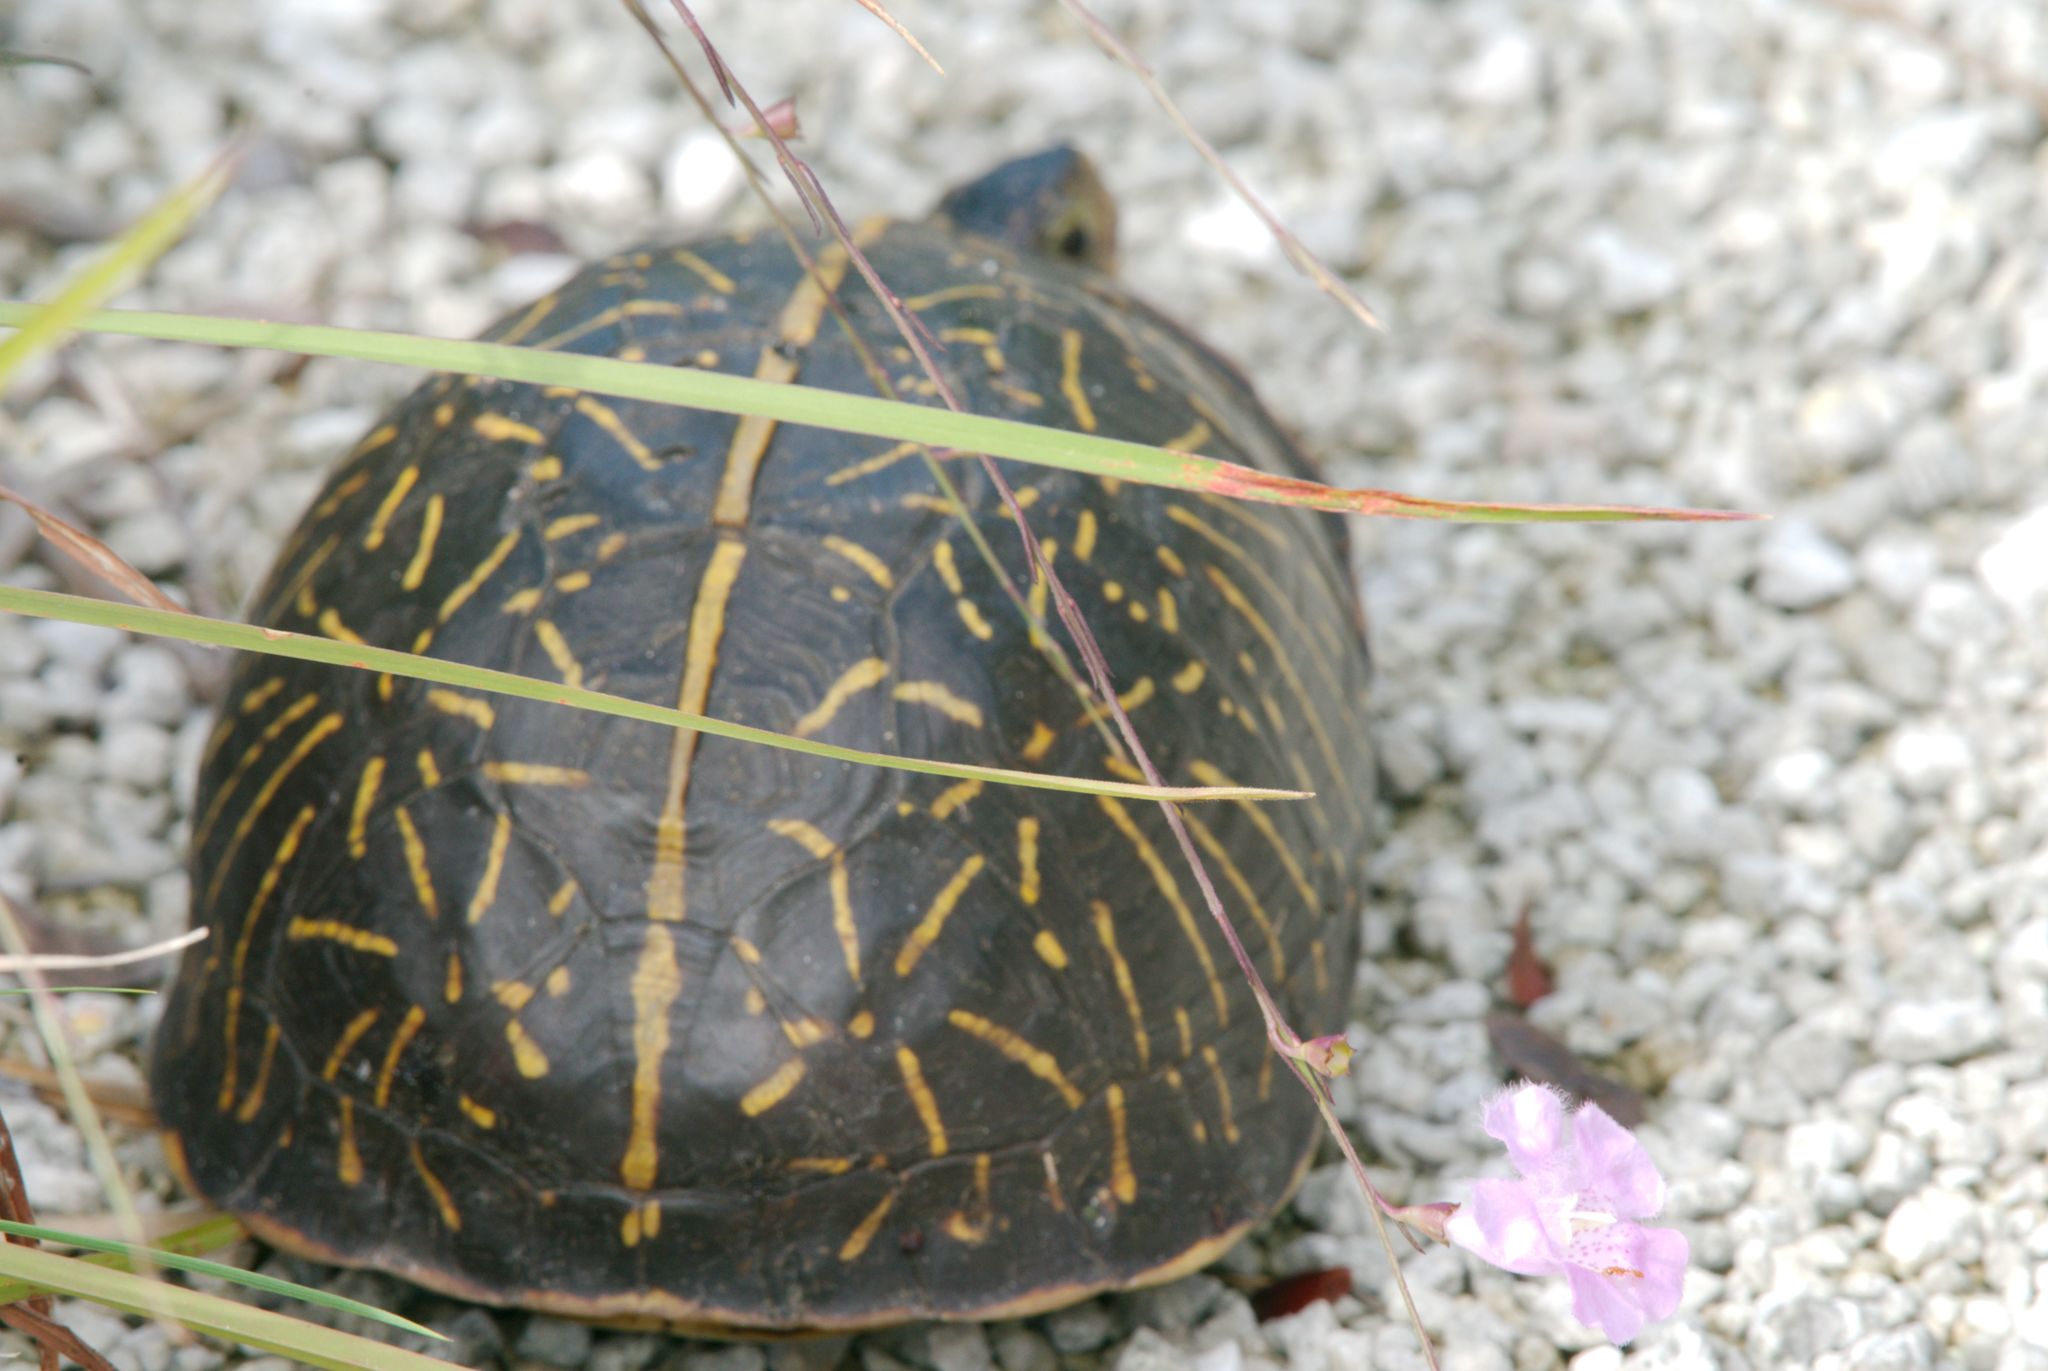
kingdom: Animalia
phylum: Chordata
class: Testudines
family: Emydidae
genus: Terrapene
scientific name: Terrapene carolina
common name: Common box turtle
